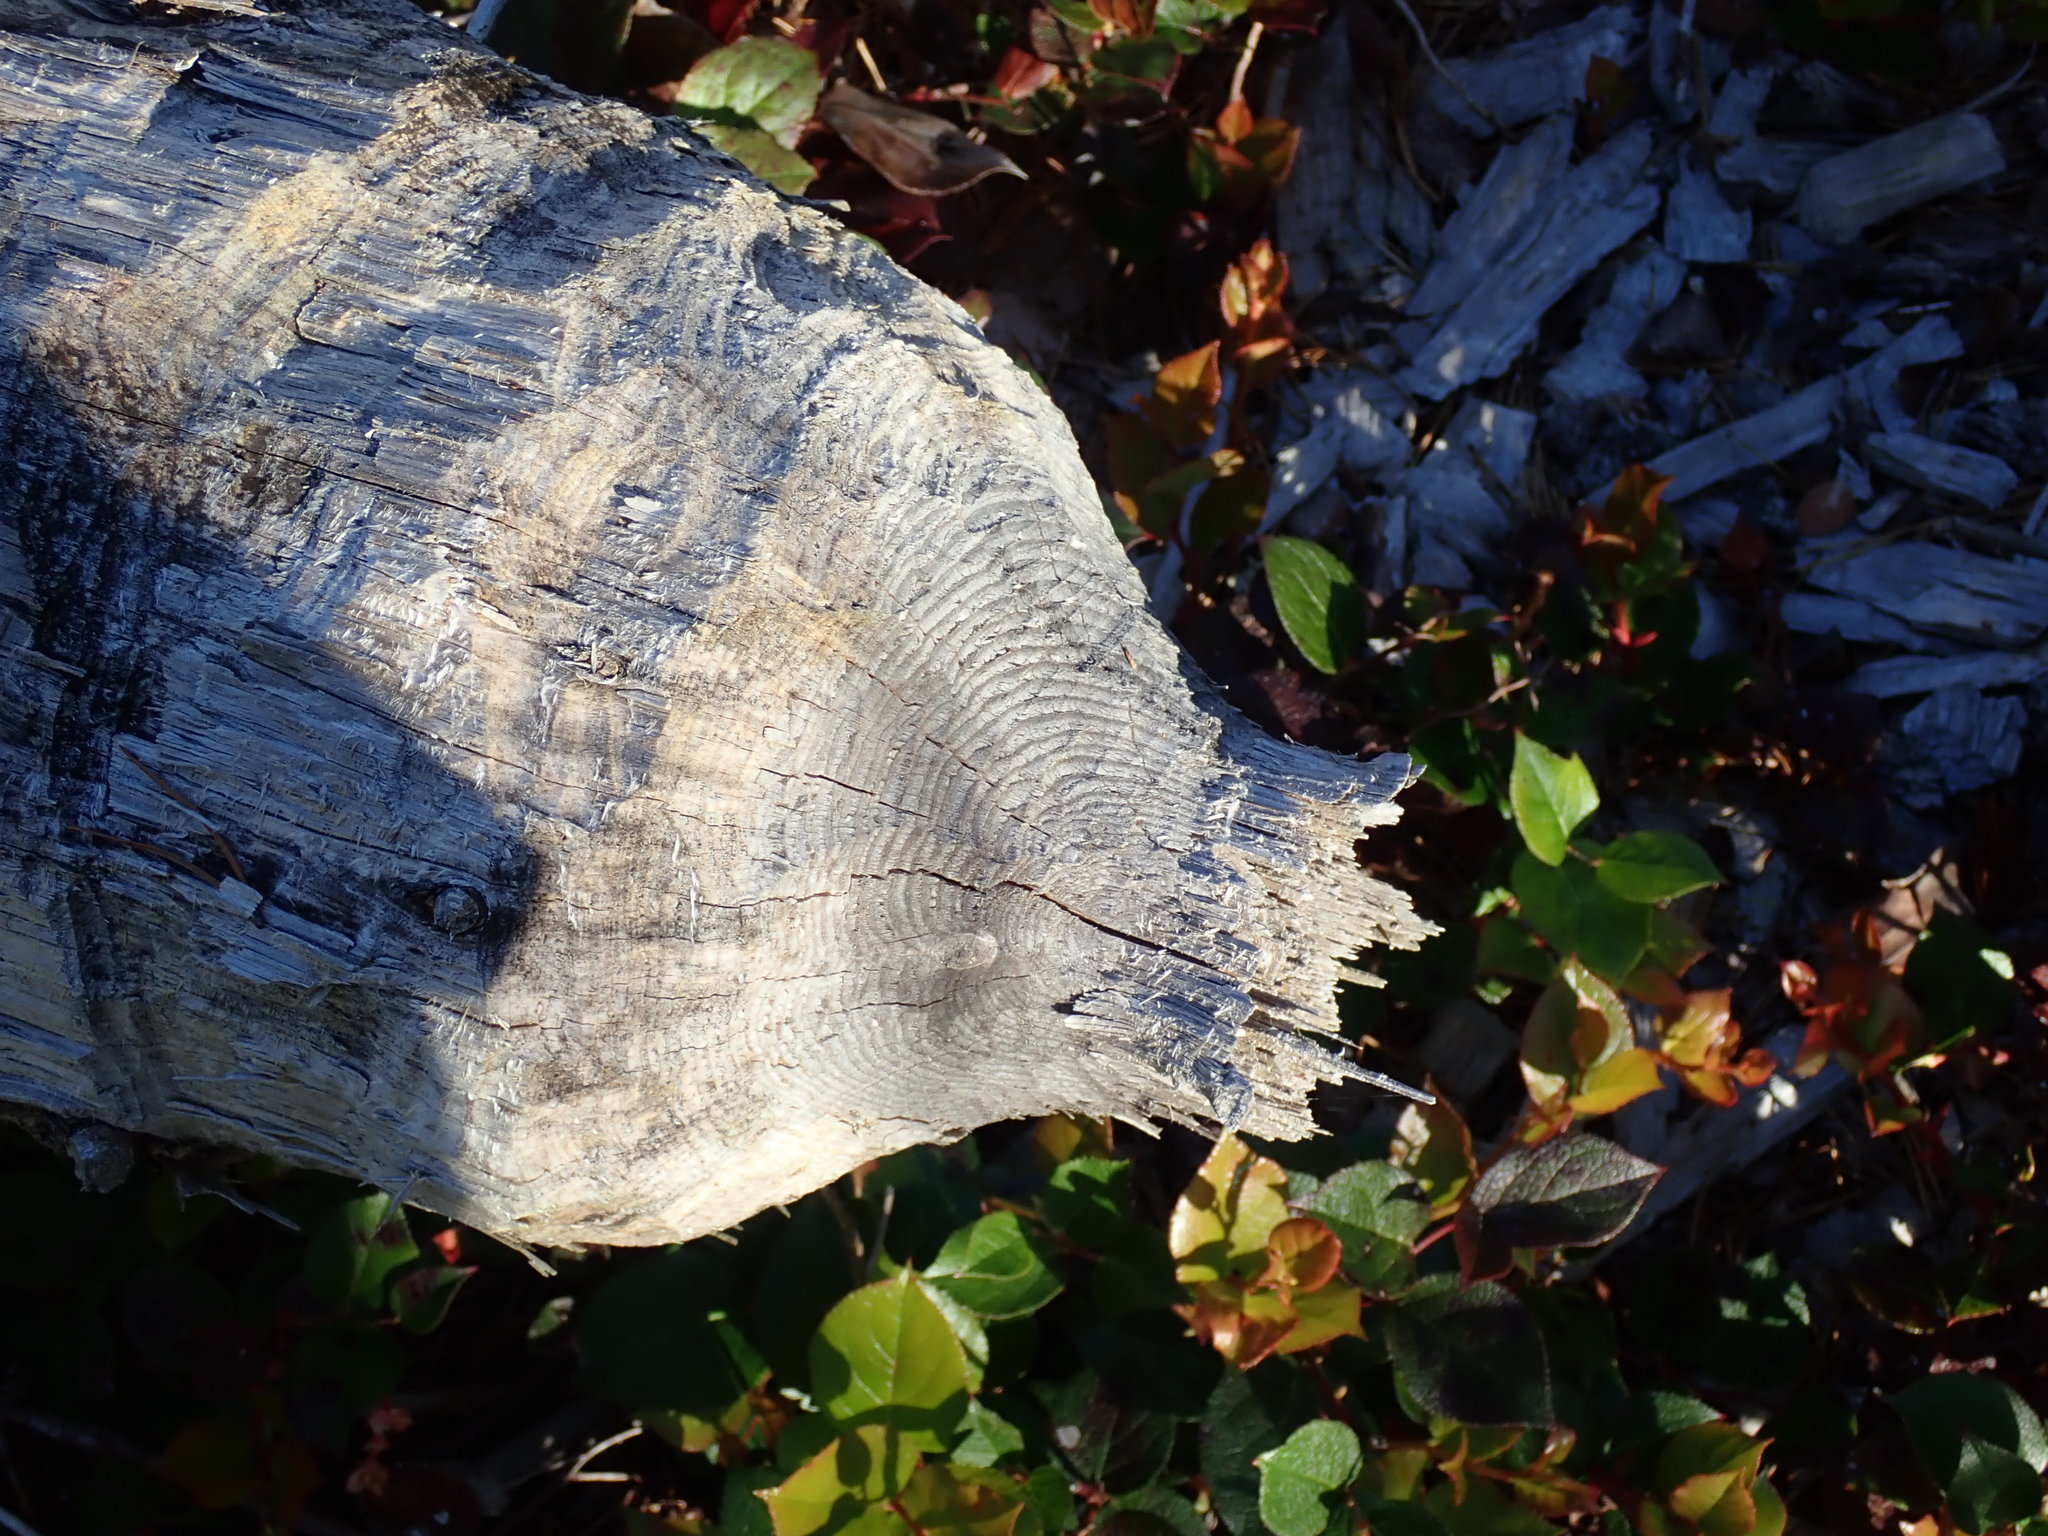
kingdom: Animalia
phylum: Chordata
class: Mammalia
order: Rodentia
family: Castoridae
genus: Castor
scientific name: Castor canadensis
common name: American beaver
